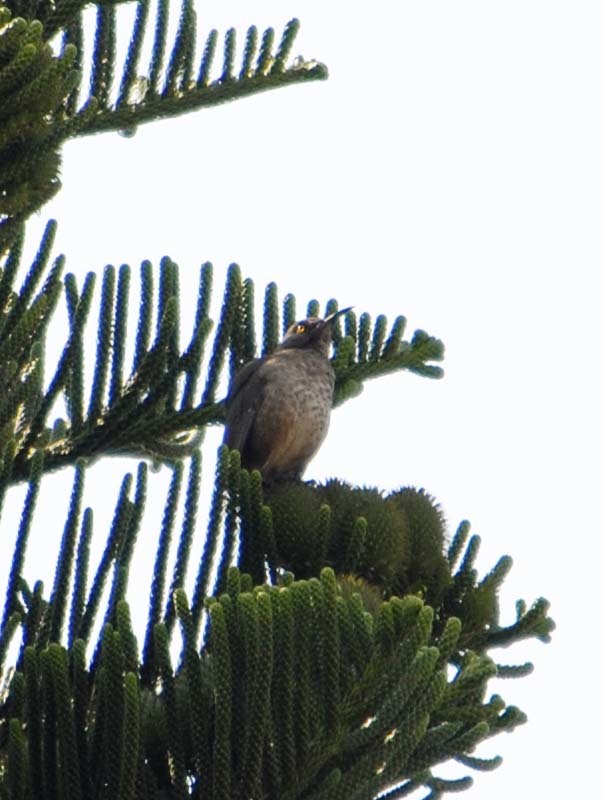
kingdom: Animalia
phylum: Chordata
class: Aves
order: Passeriformes
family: Mimidae
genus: Toxostoma
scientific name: Toxostoma curvirostre
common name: Curve-billed thrasher
